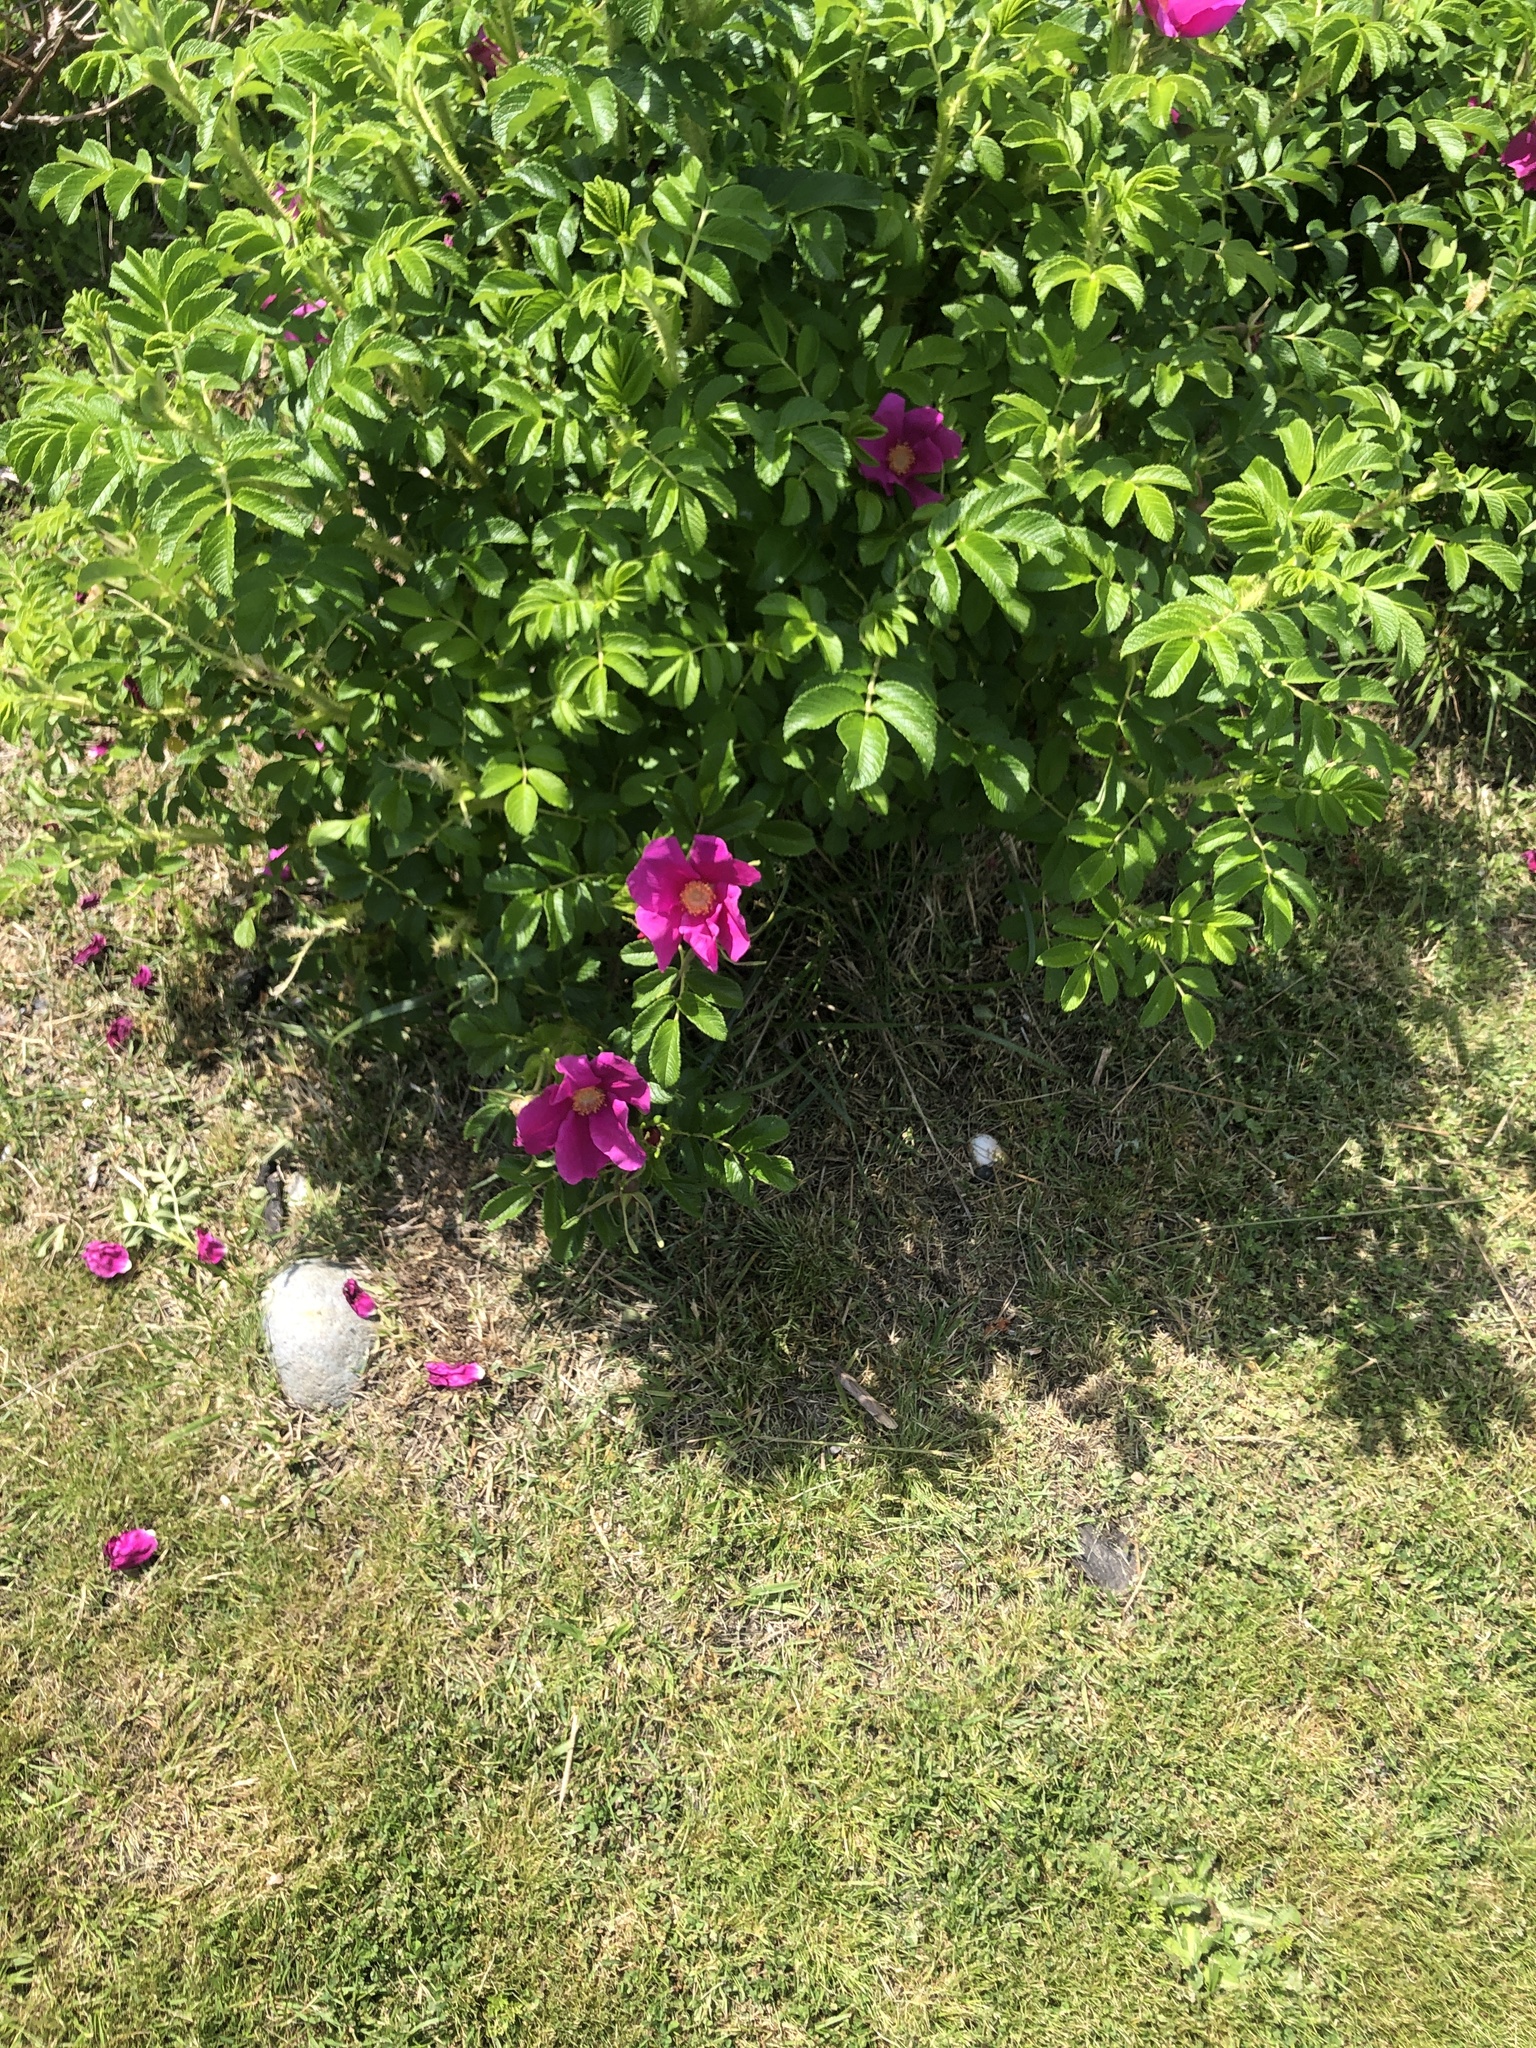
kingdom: Plantae
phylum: Tracheophyta
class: Magnoliopsida
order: Rosales
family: Rosaceae
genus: Rosa
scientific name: Rosa rugosa
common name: Japanese rose
